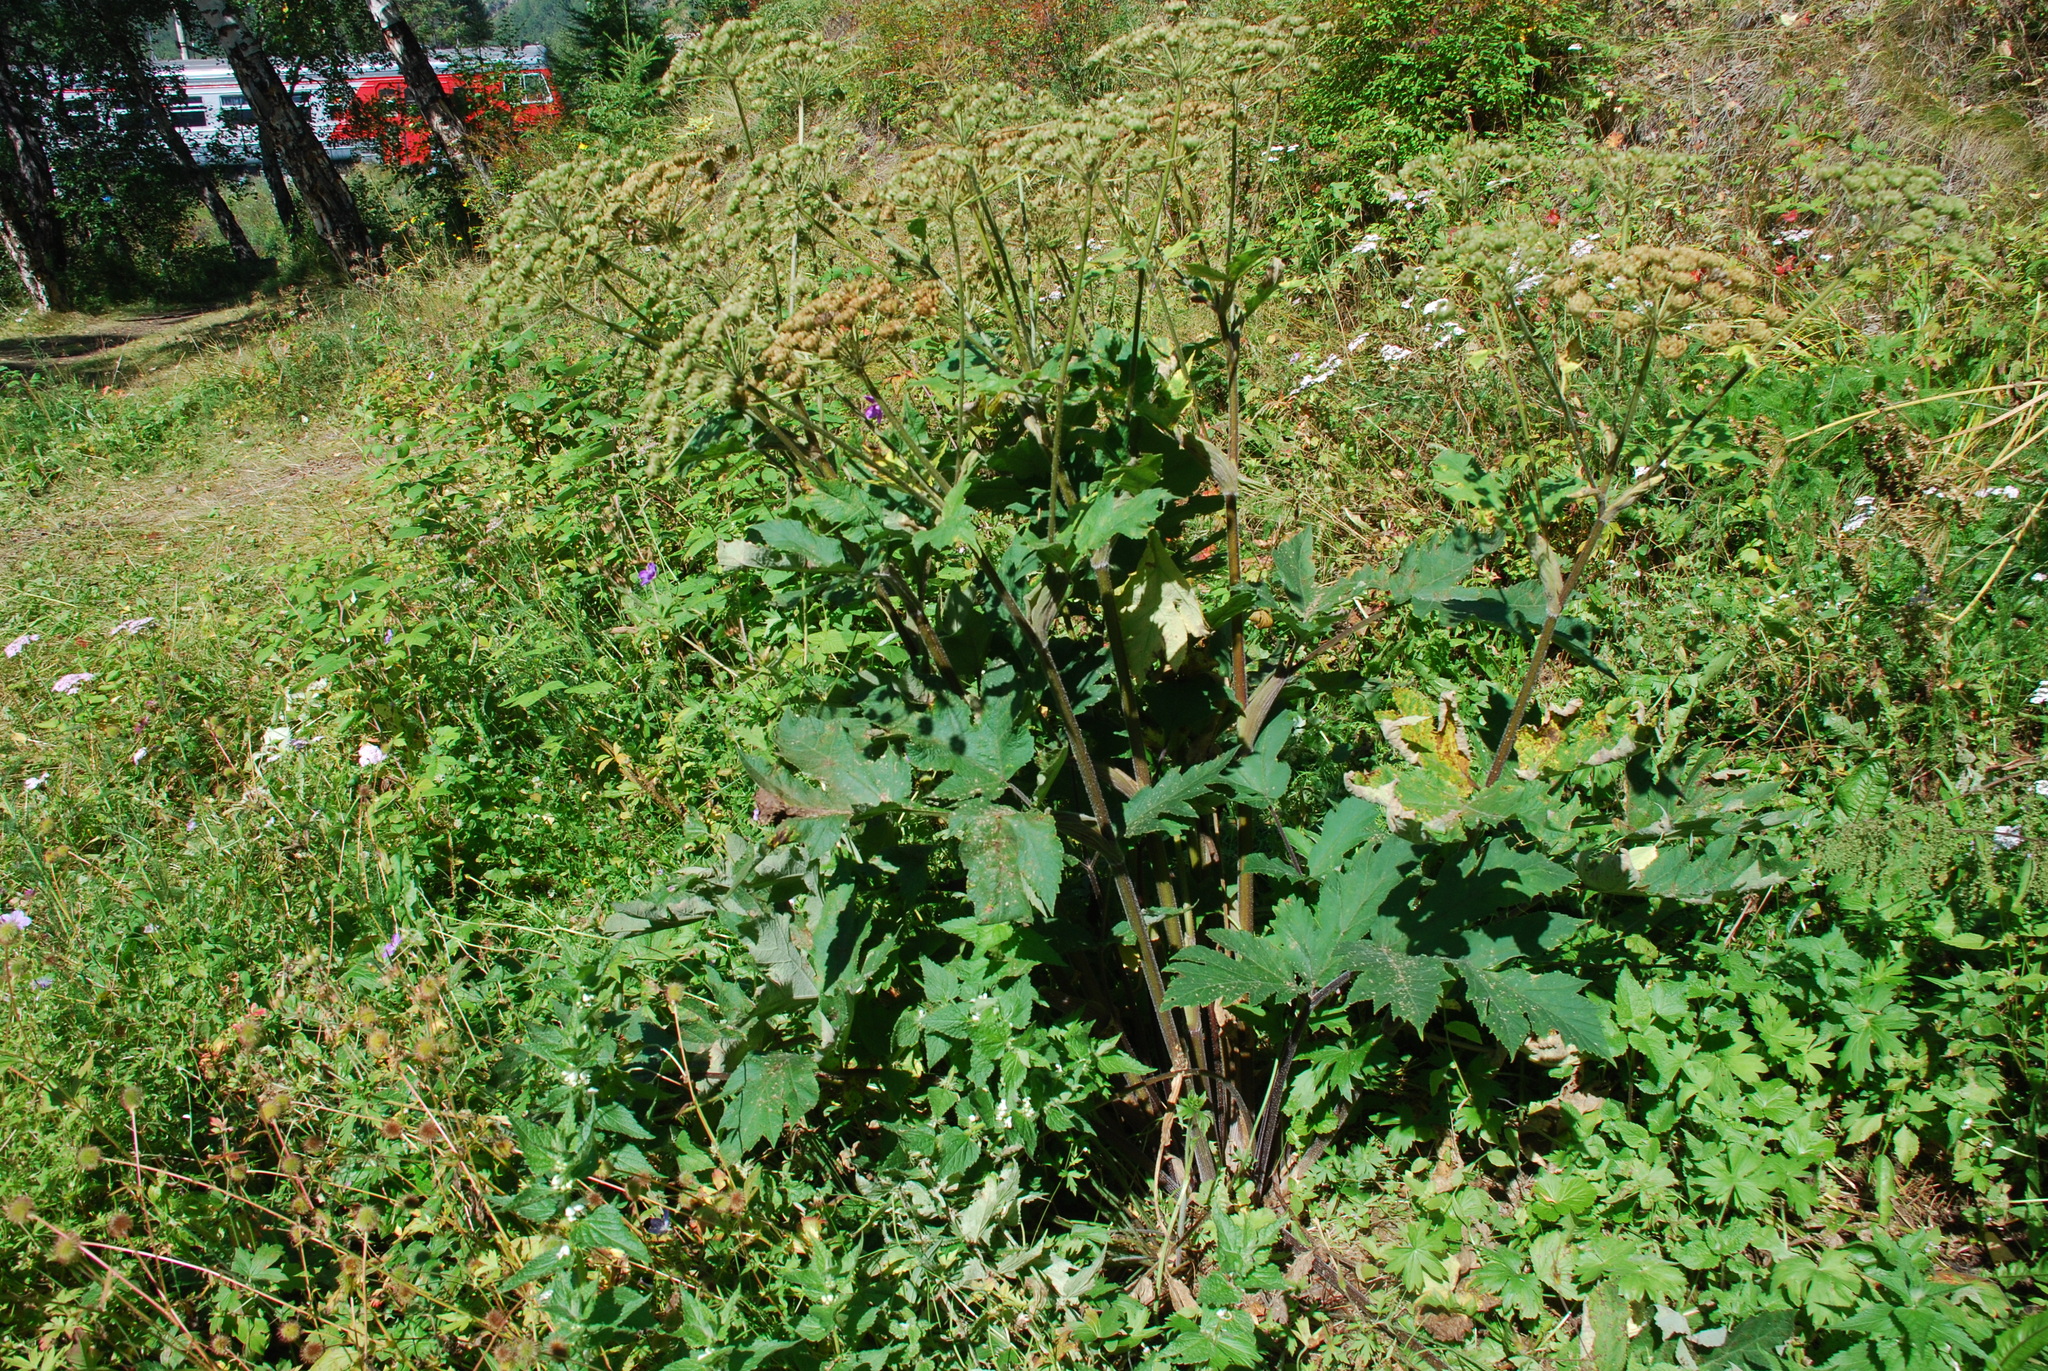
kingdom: Plantae
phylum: Tracheophyta
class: Magnoliopsida
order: Apiales
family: Apiaceae
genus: Heracleum
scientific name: Heracleum dissectum
